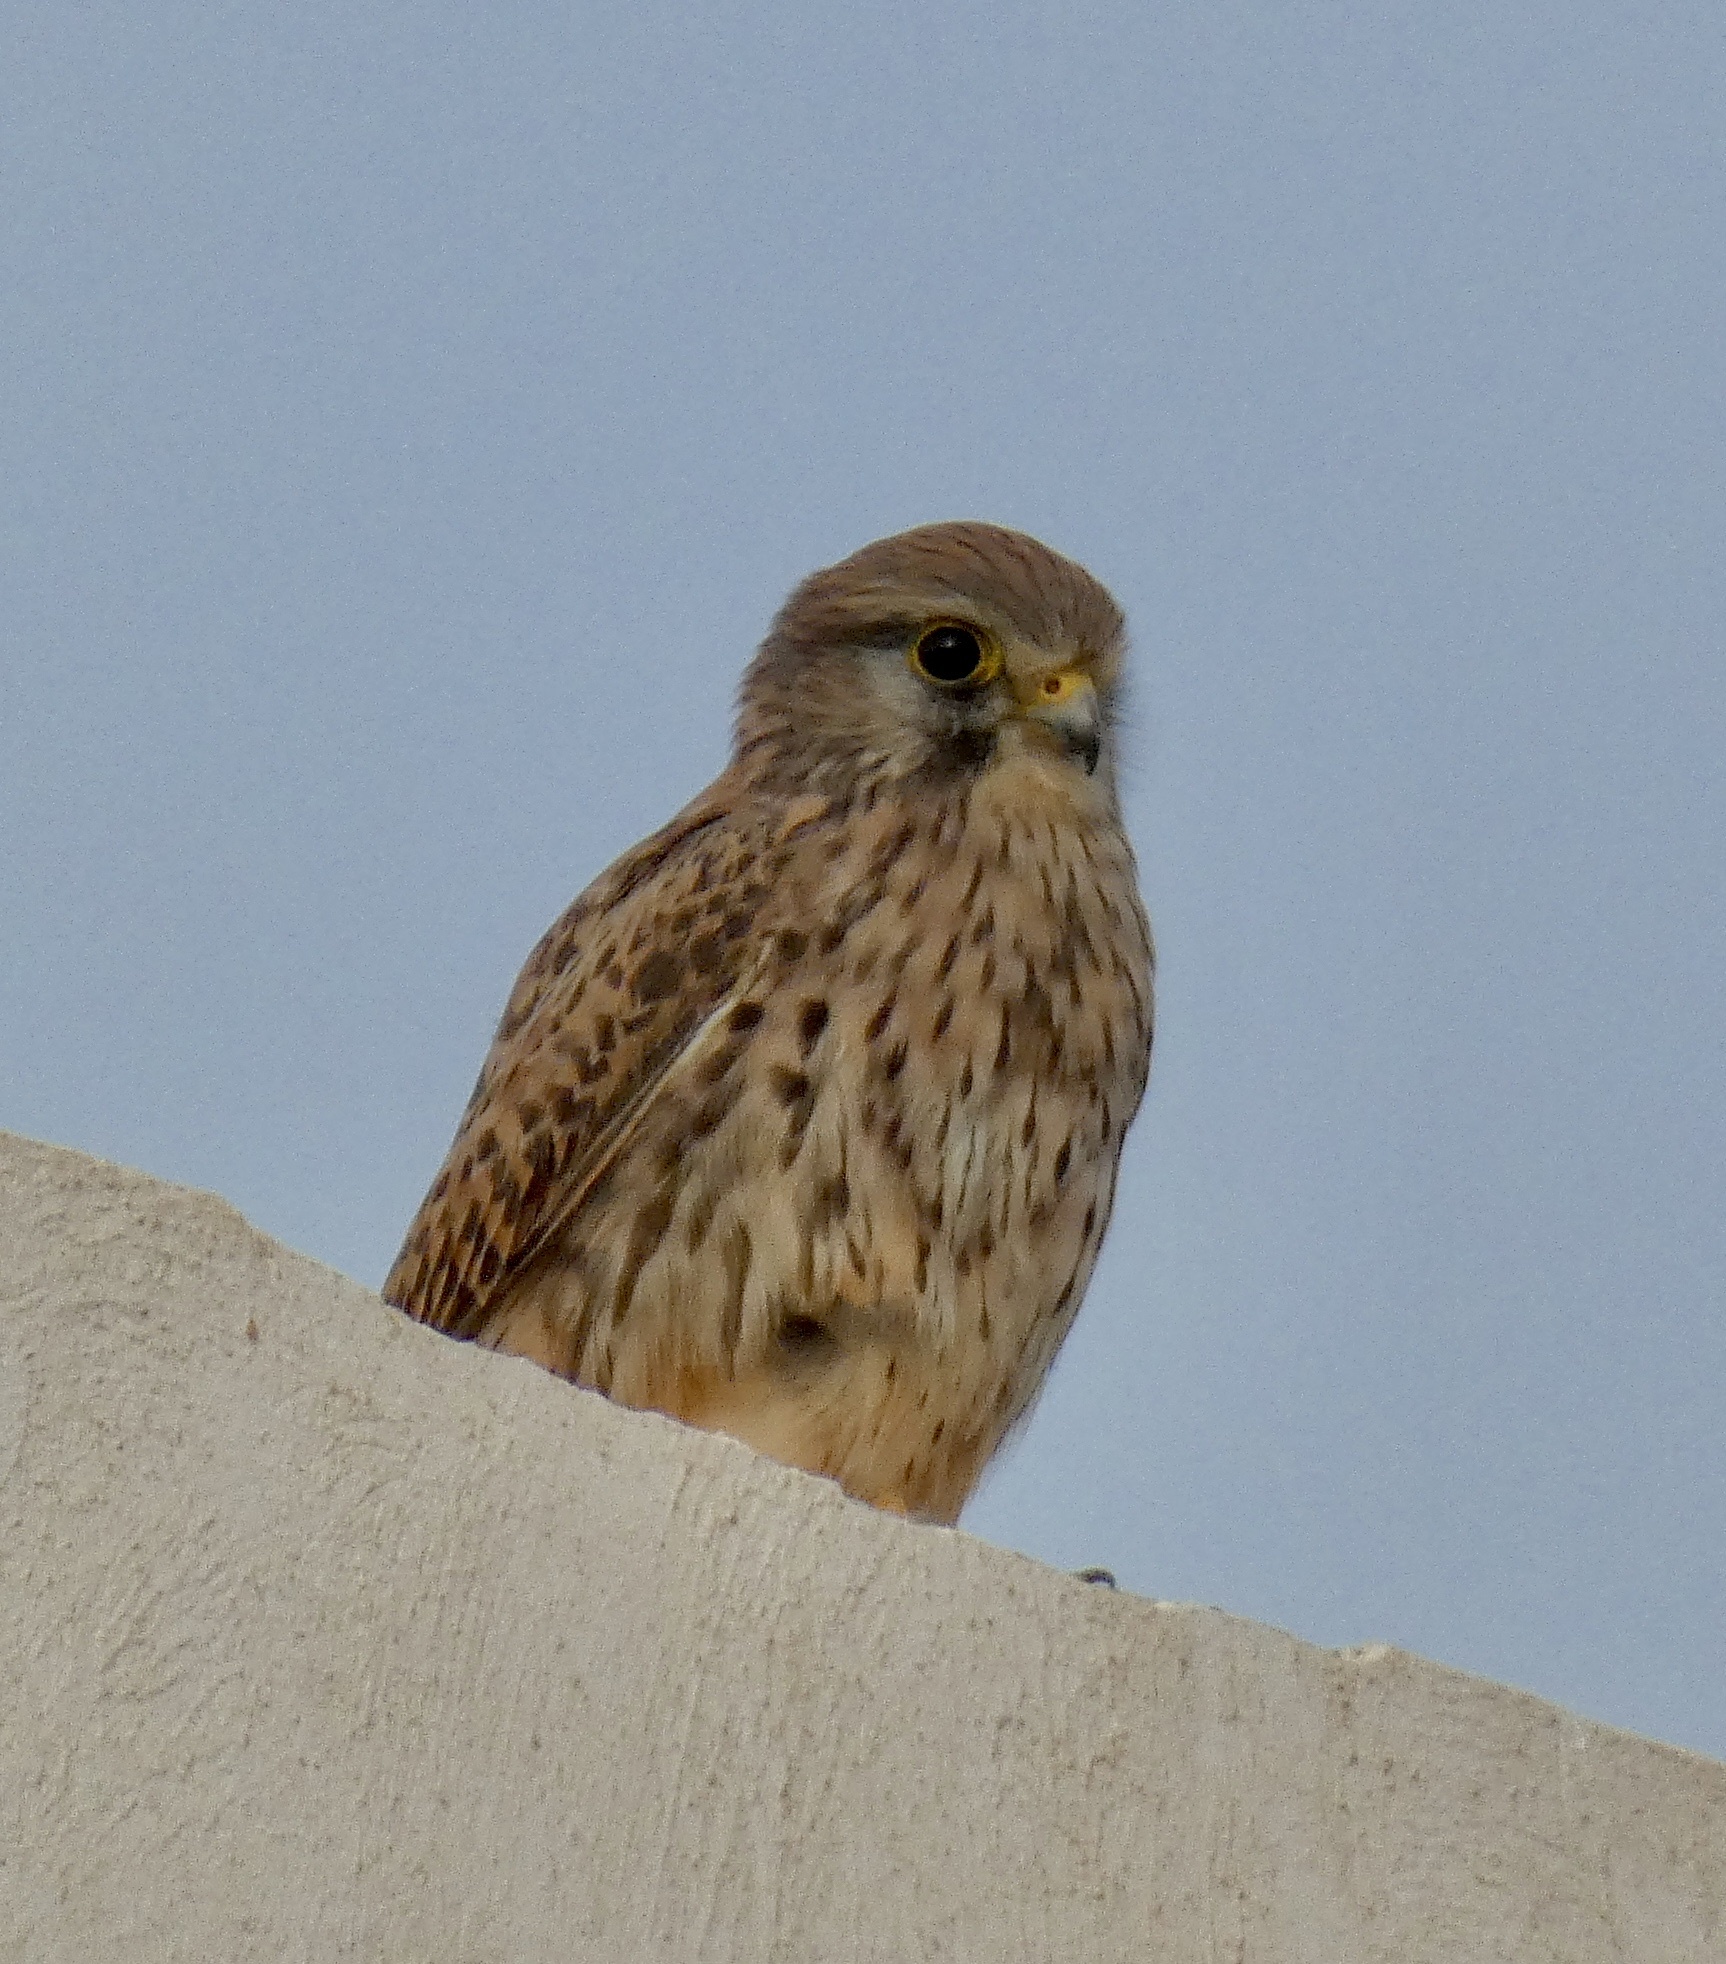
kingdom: Animalia
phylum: Chordata
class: Aves
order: Falconiformes
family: Falconidae
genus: Falco
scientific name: Falco tinnunculus
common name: Common kestrel
